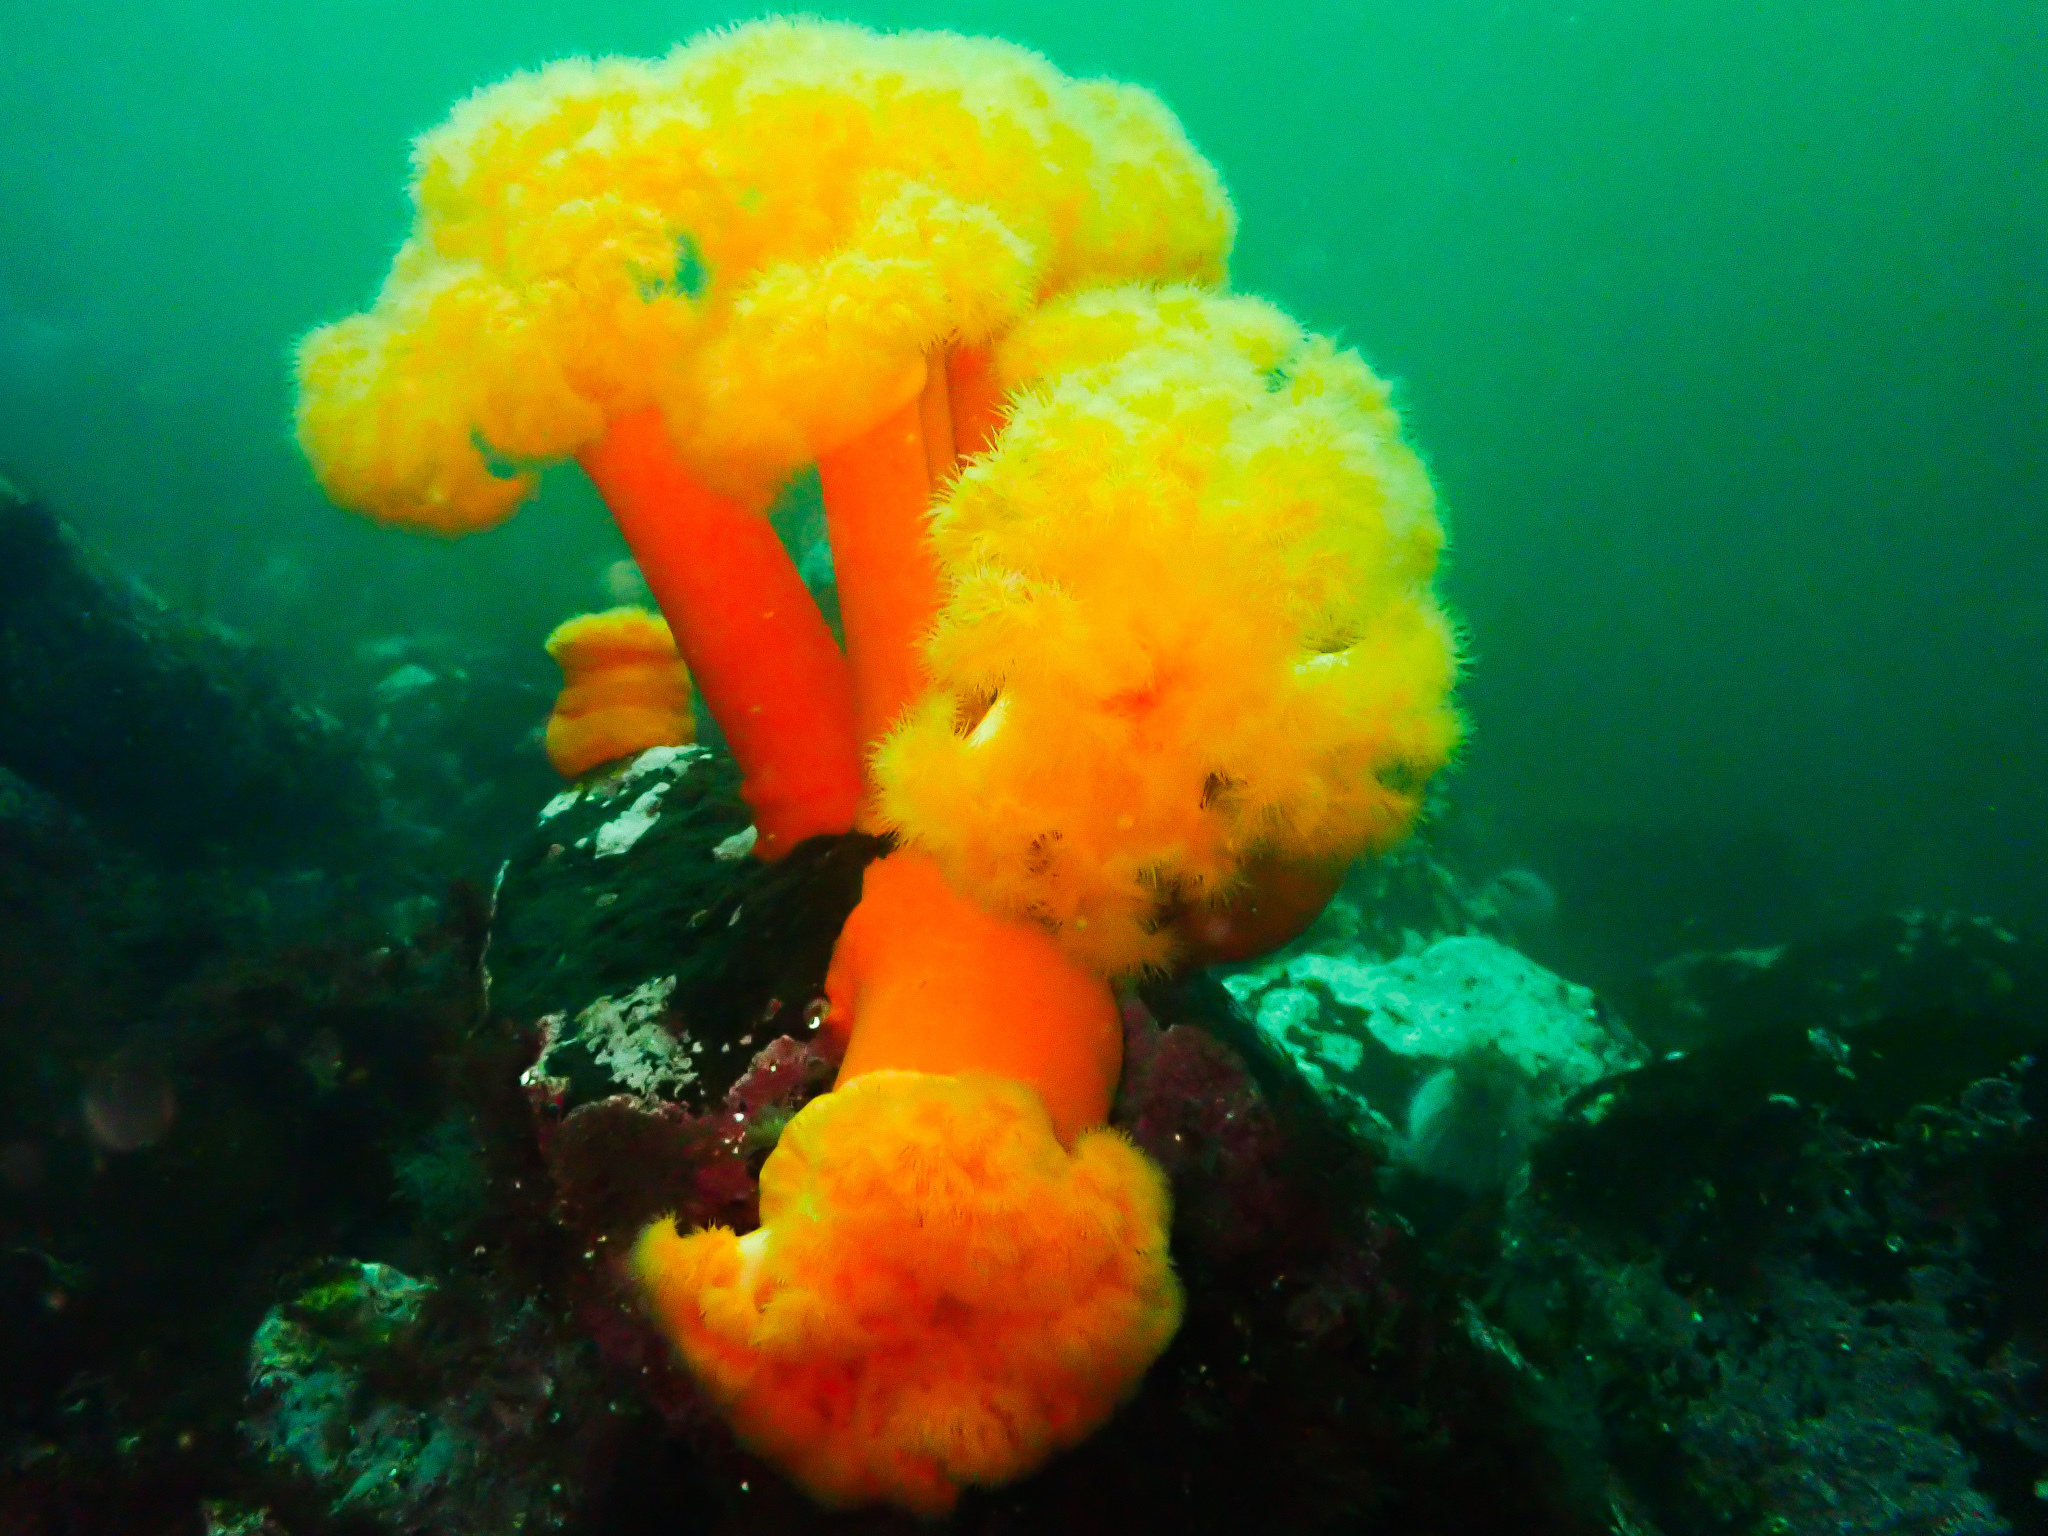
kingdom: Animalia
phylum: Cnidaria
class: Anthozoa
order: Actiniaria
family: Metridiidae
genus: Metridium
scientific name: Metridium senile
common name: Clonal plumose anemone
